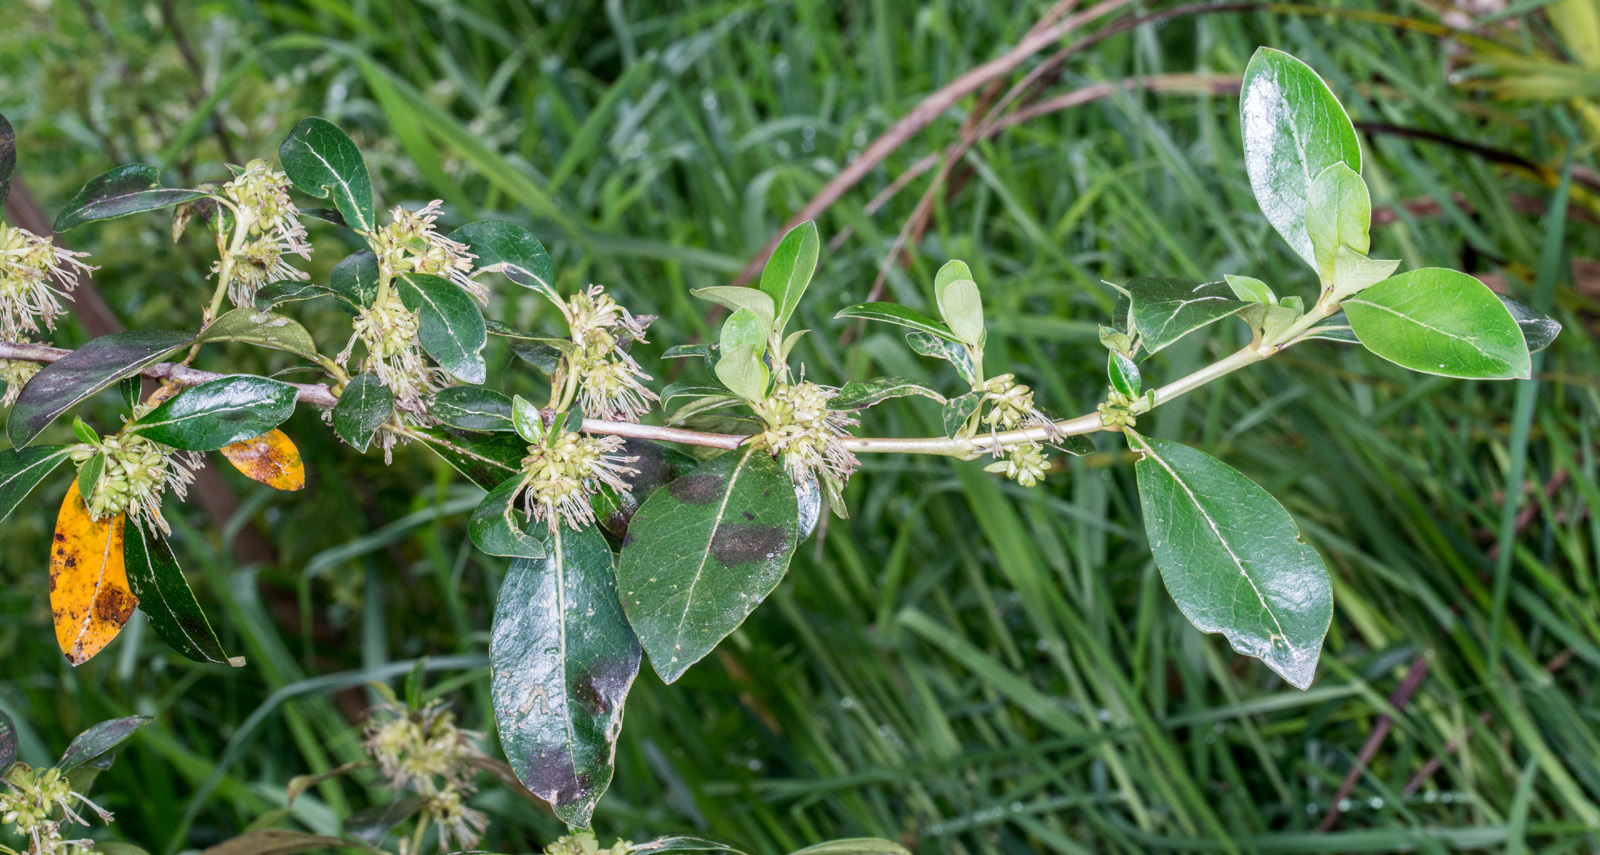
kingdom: Plantae
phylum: Tracheophyta
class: Magnoliopsida
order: Gentianales
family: Rubiaceae
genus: Coprosma
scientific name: Coprosma robusta
